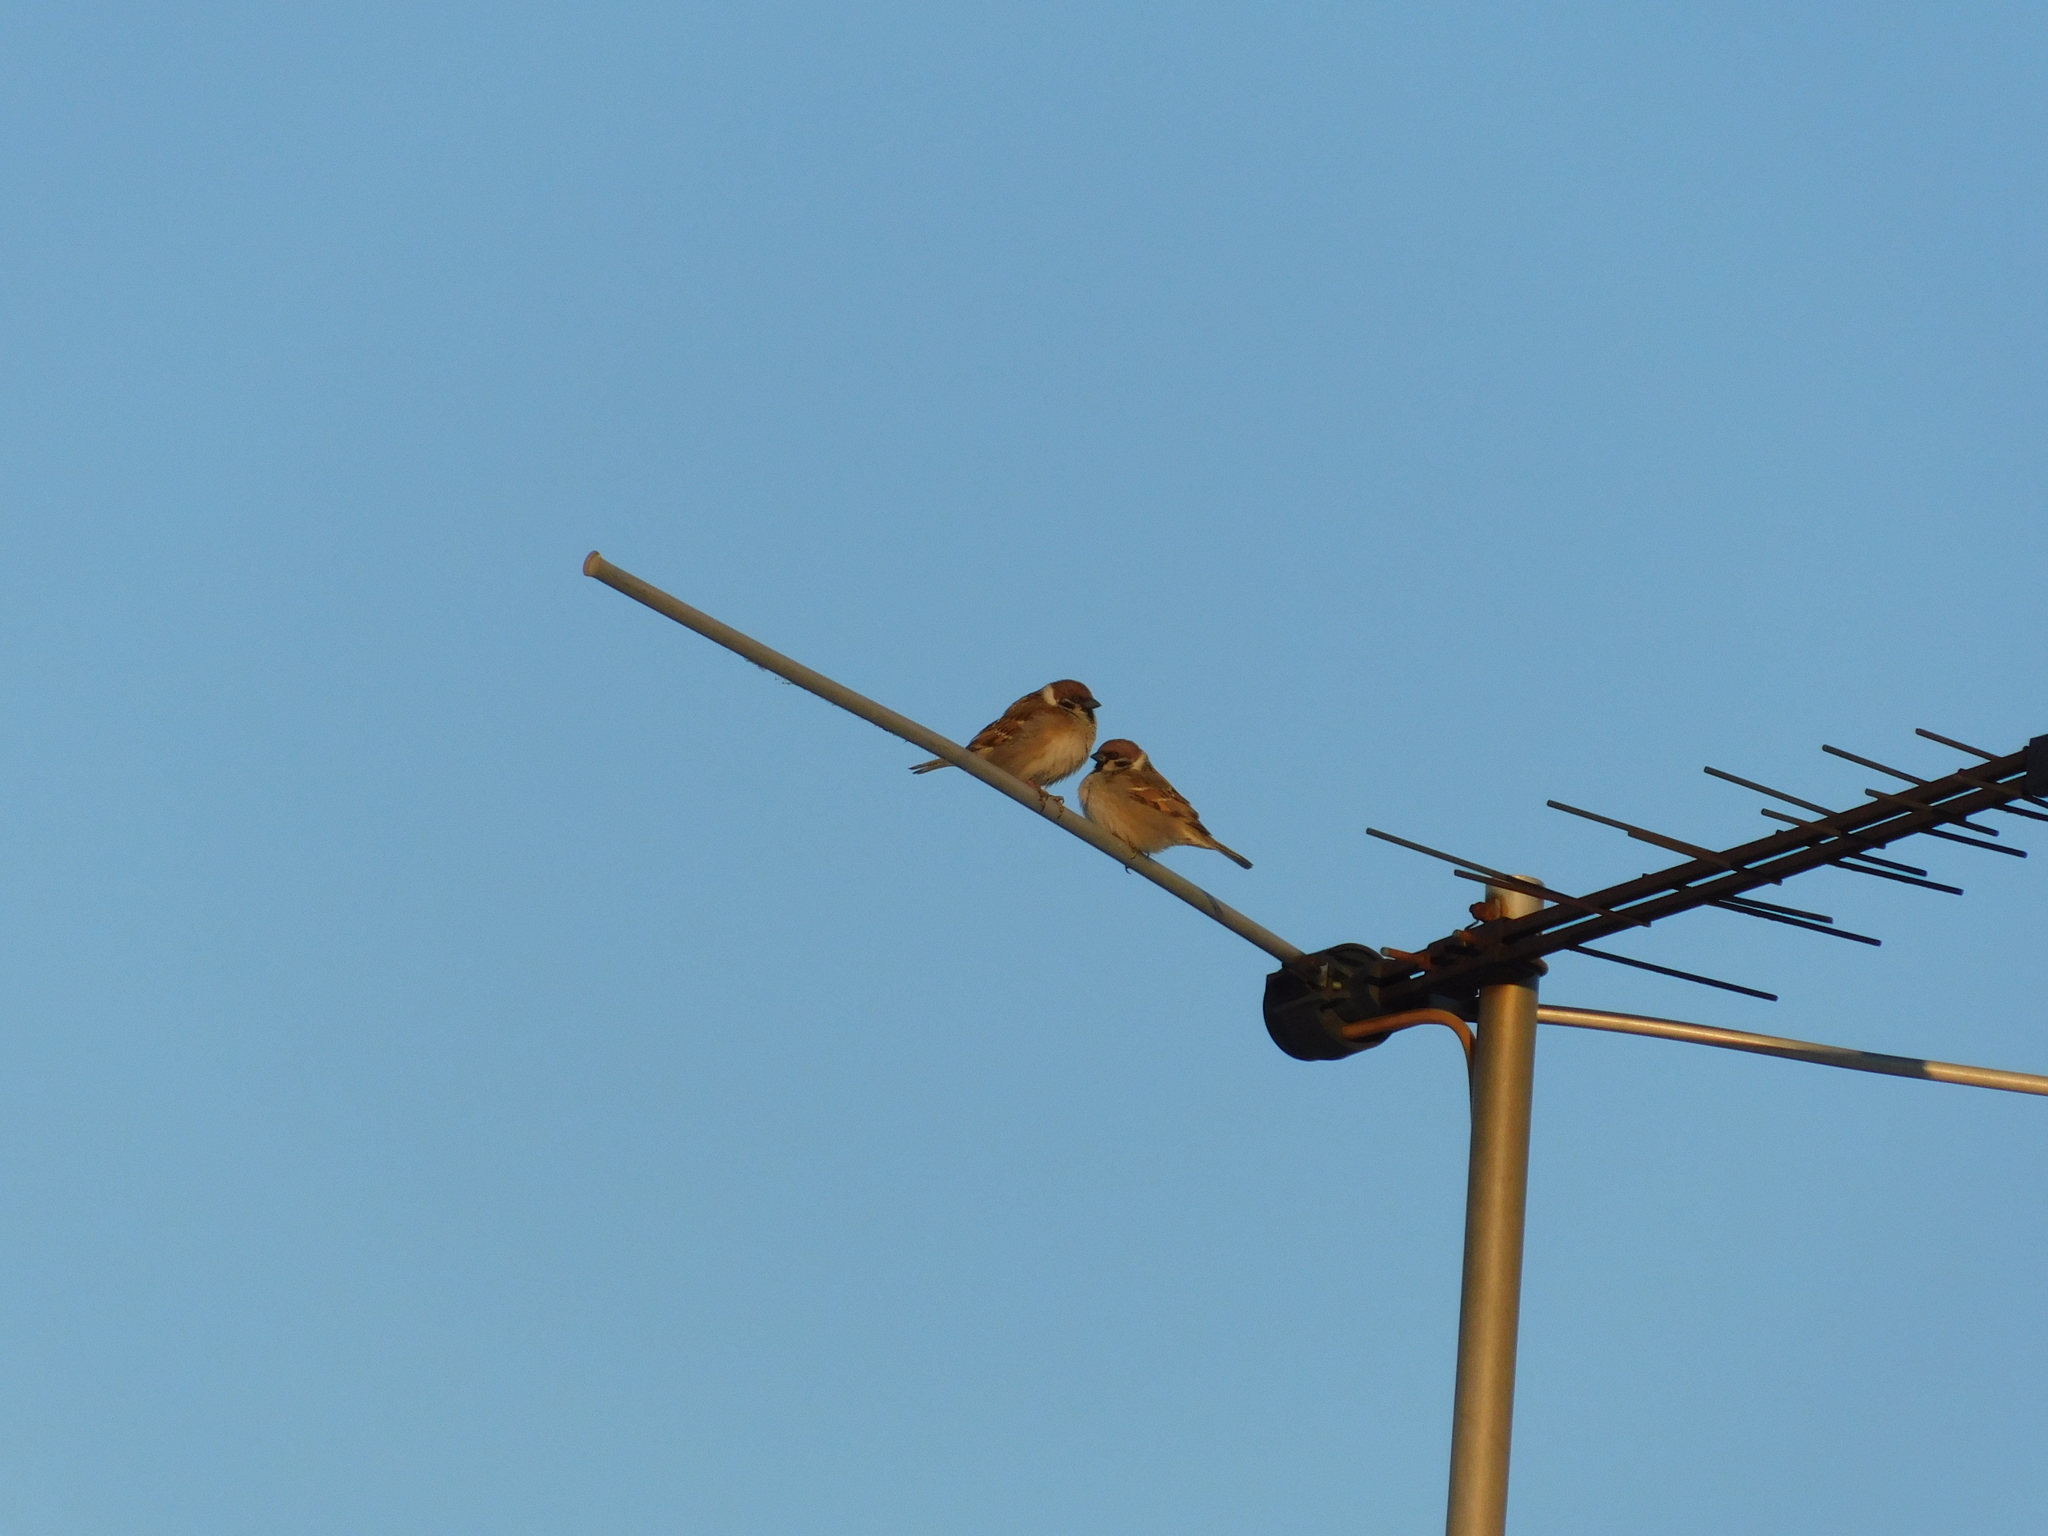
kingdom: Animalia
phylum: Chordata
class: Aves
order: Passeriformes
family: Passeridae
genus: Passer
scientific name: Passer montanus
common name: Eurasian tree sparrow
